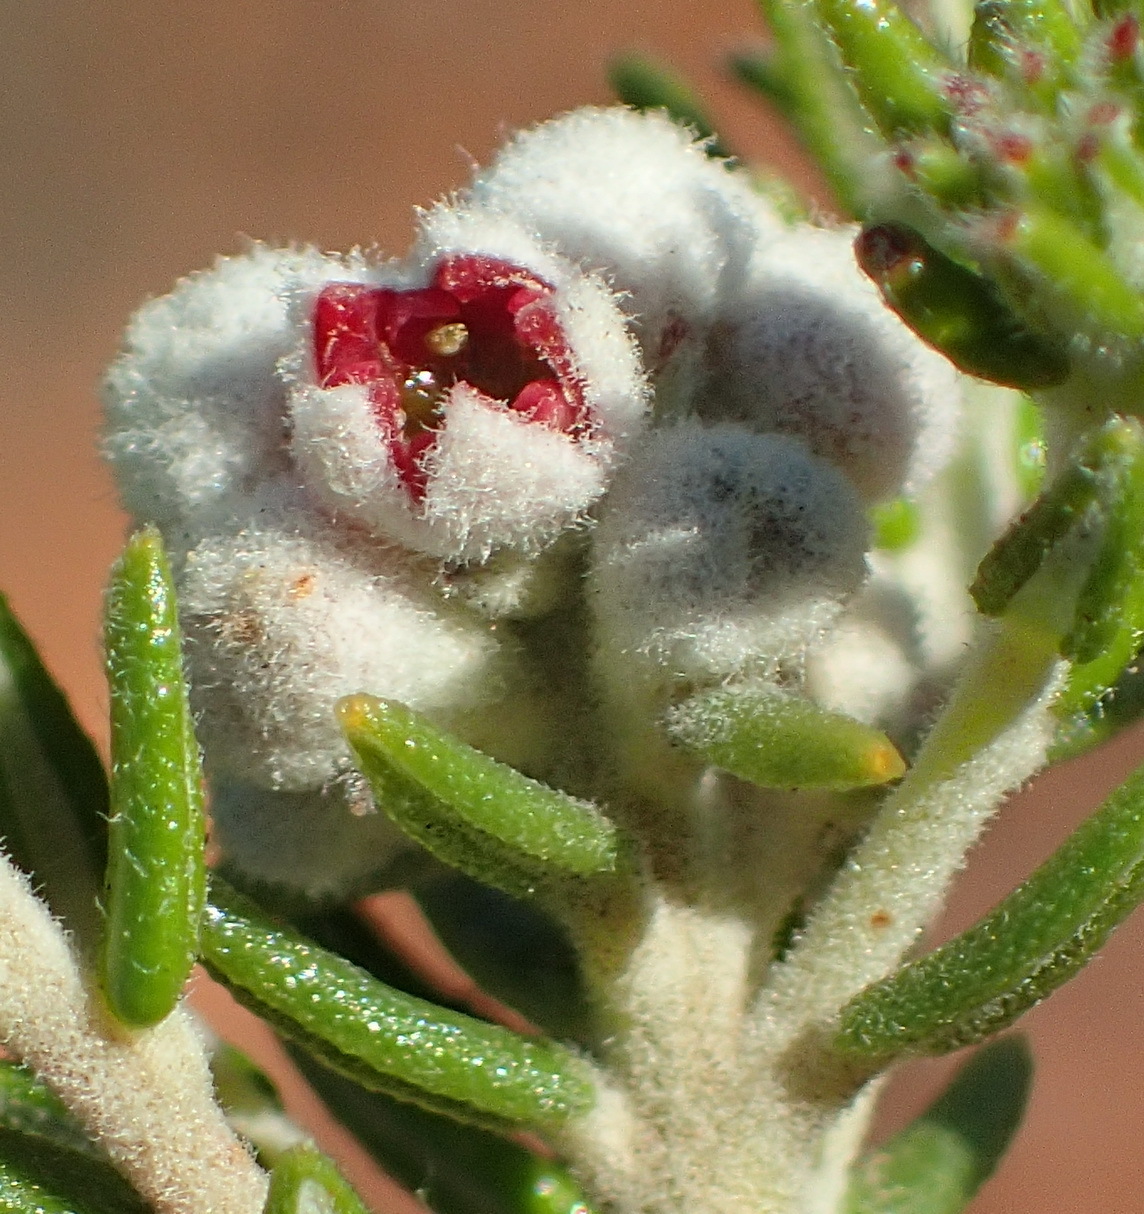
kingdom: Plantae
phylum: Tracheophyta
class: Magnoliopsida
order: Rosales
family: Rhamnaceae
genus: Phylica
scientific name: Phylica purpurea
